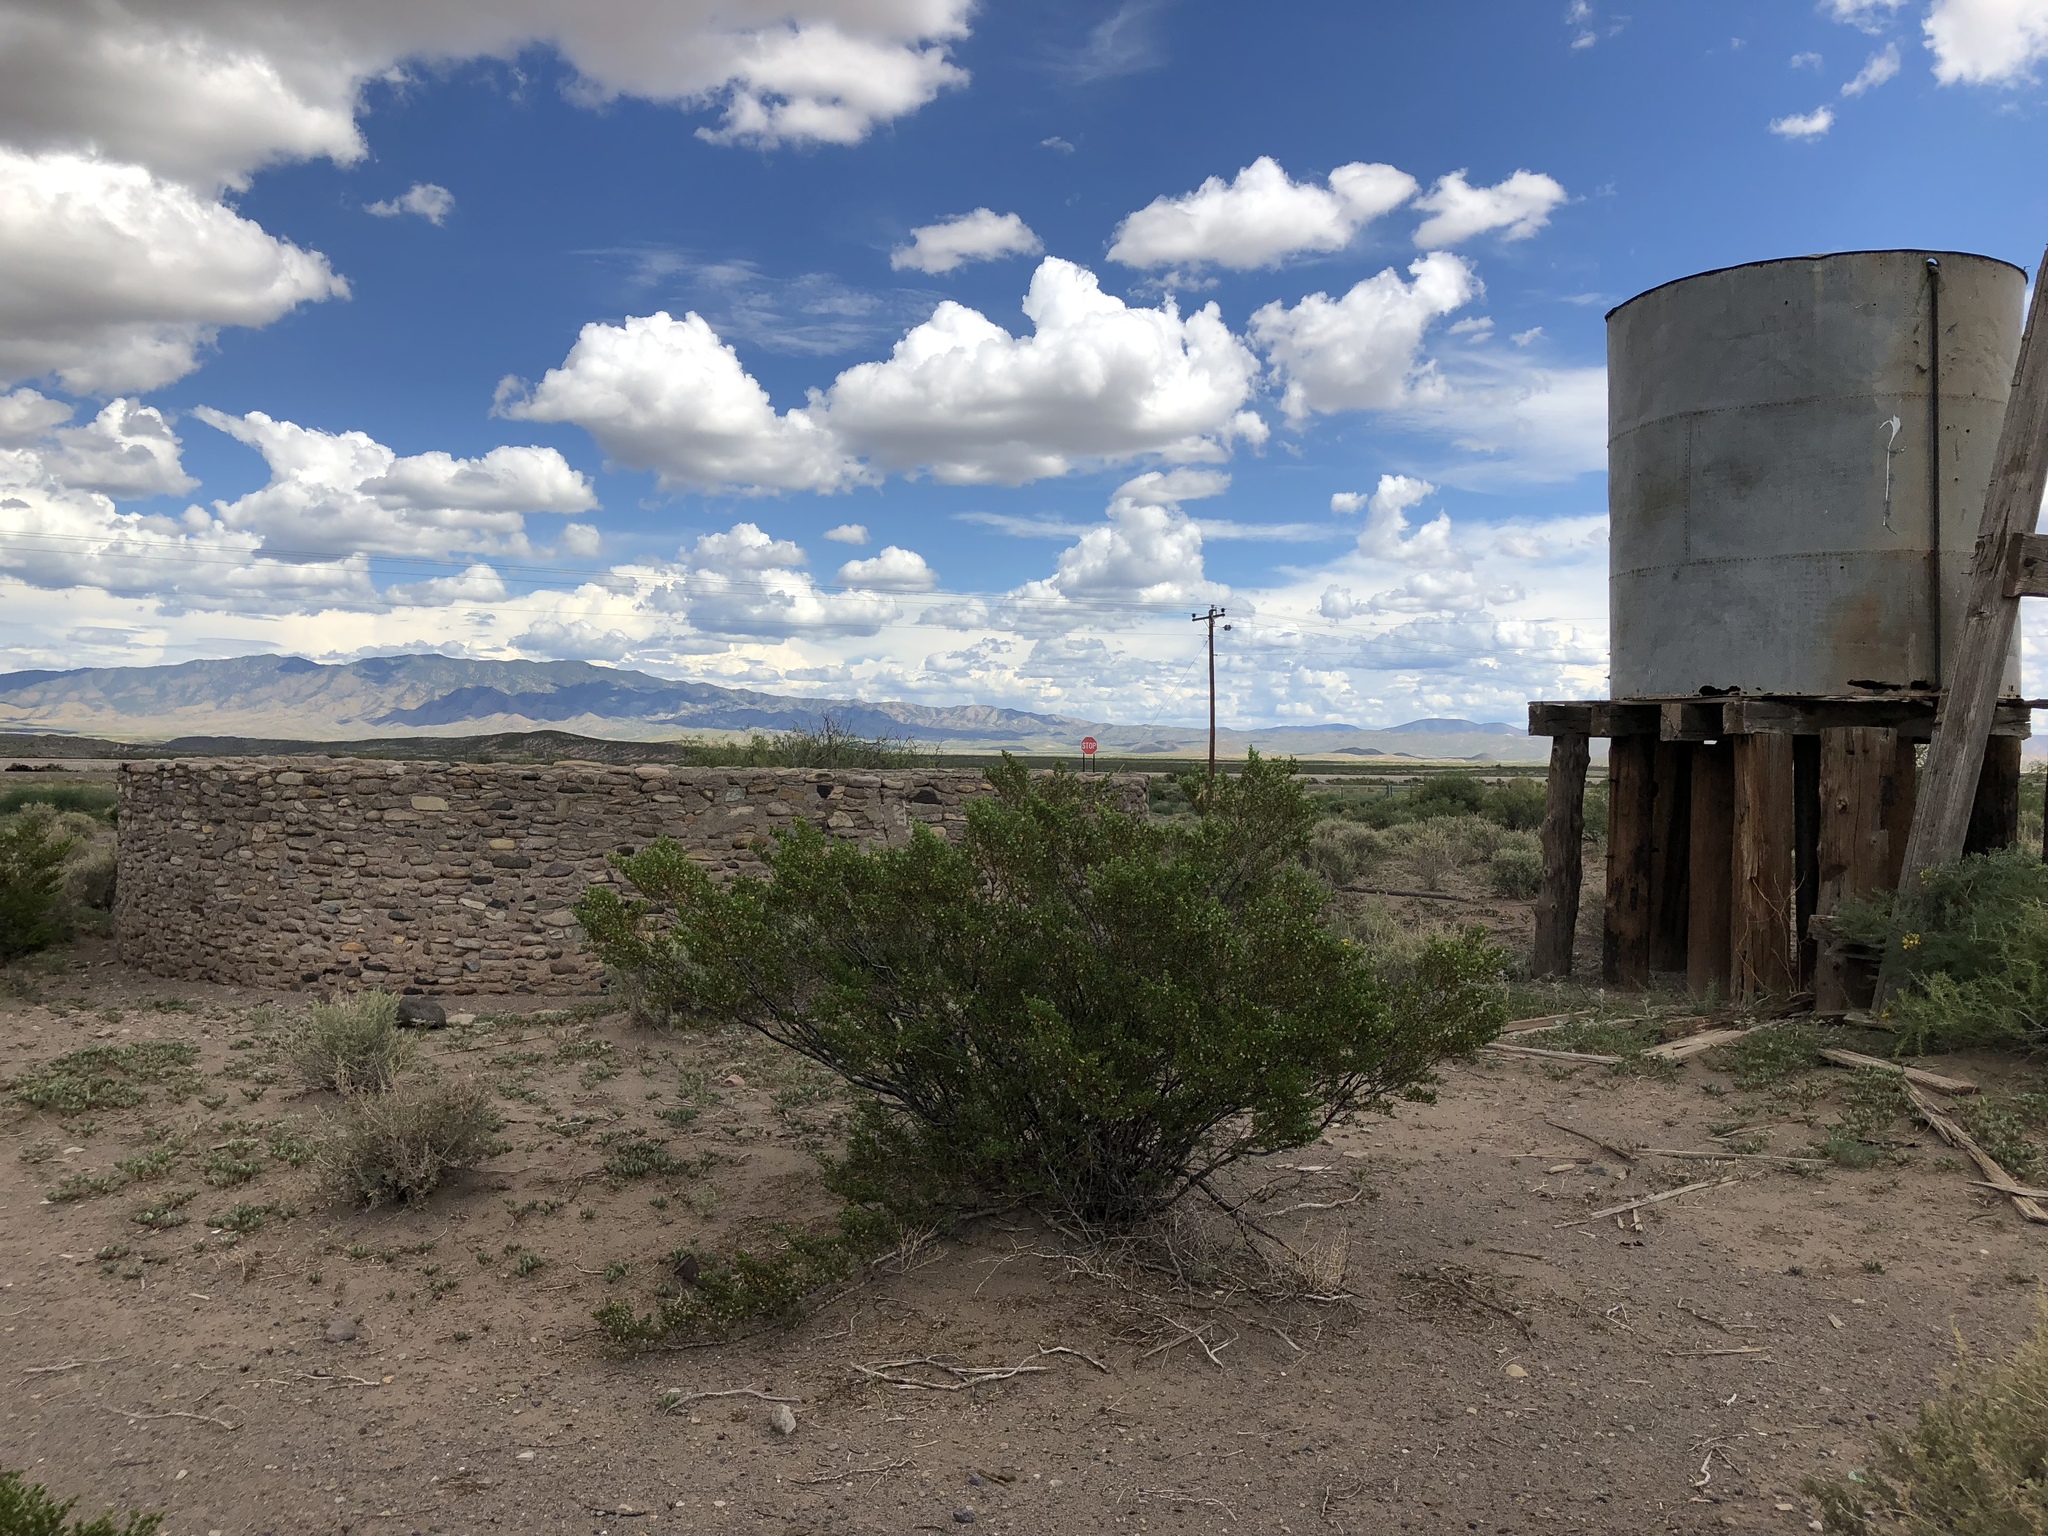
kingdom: Plantae
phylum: Tracheophyta
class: Magnoliopsida
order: Zygophyllales
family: Zygophyllaceae
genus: Larrea
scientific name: Larrea tridentata
